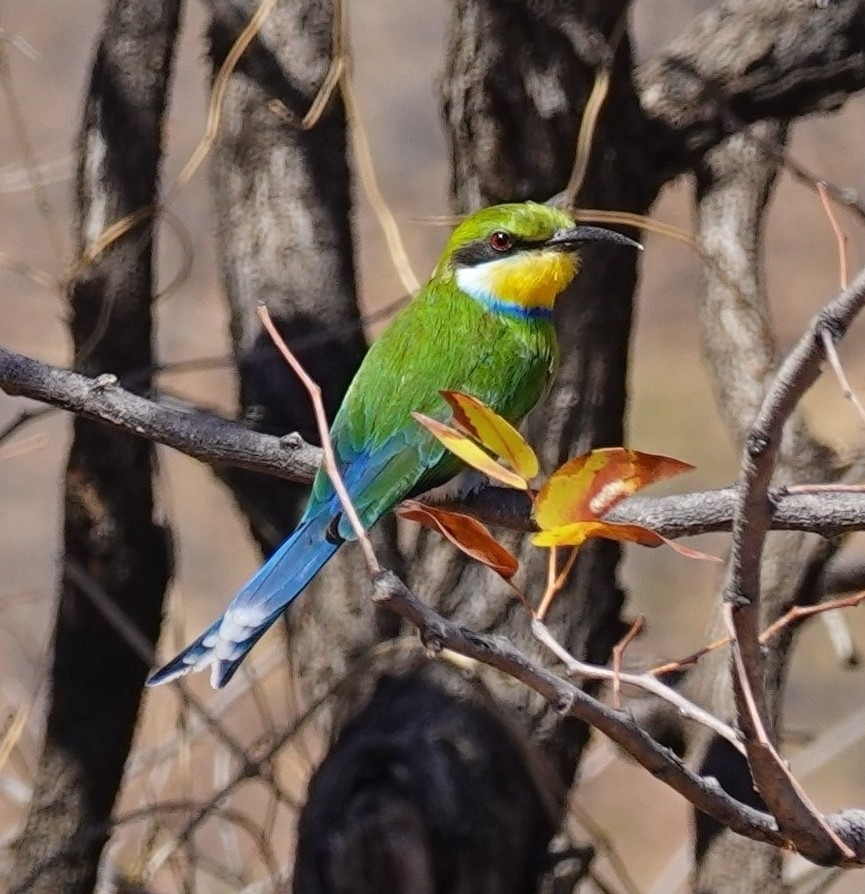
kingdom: Animalia
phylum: Chordata
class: Aves
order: Coraciiformes
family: Meropidae
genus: Merops
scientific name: Merops hirundineus
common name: Swallow-tailed bee-eater
